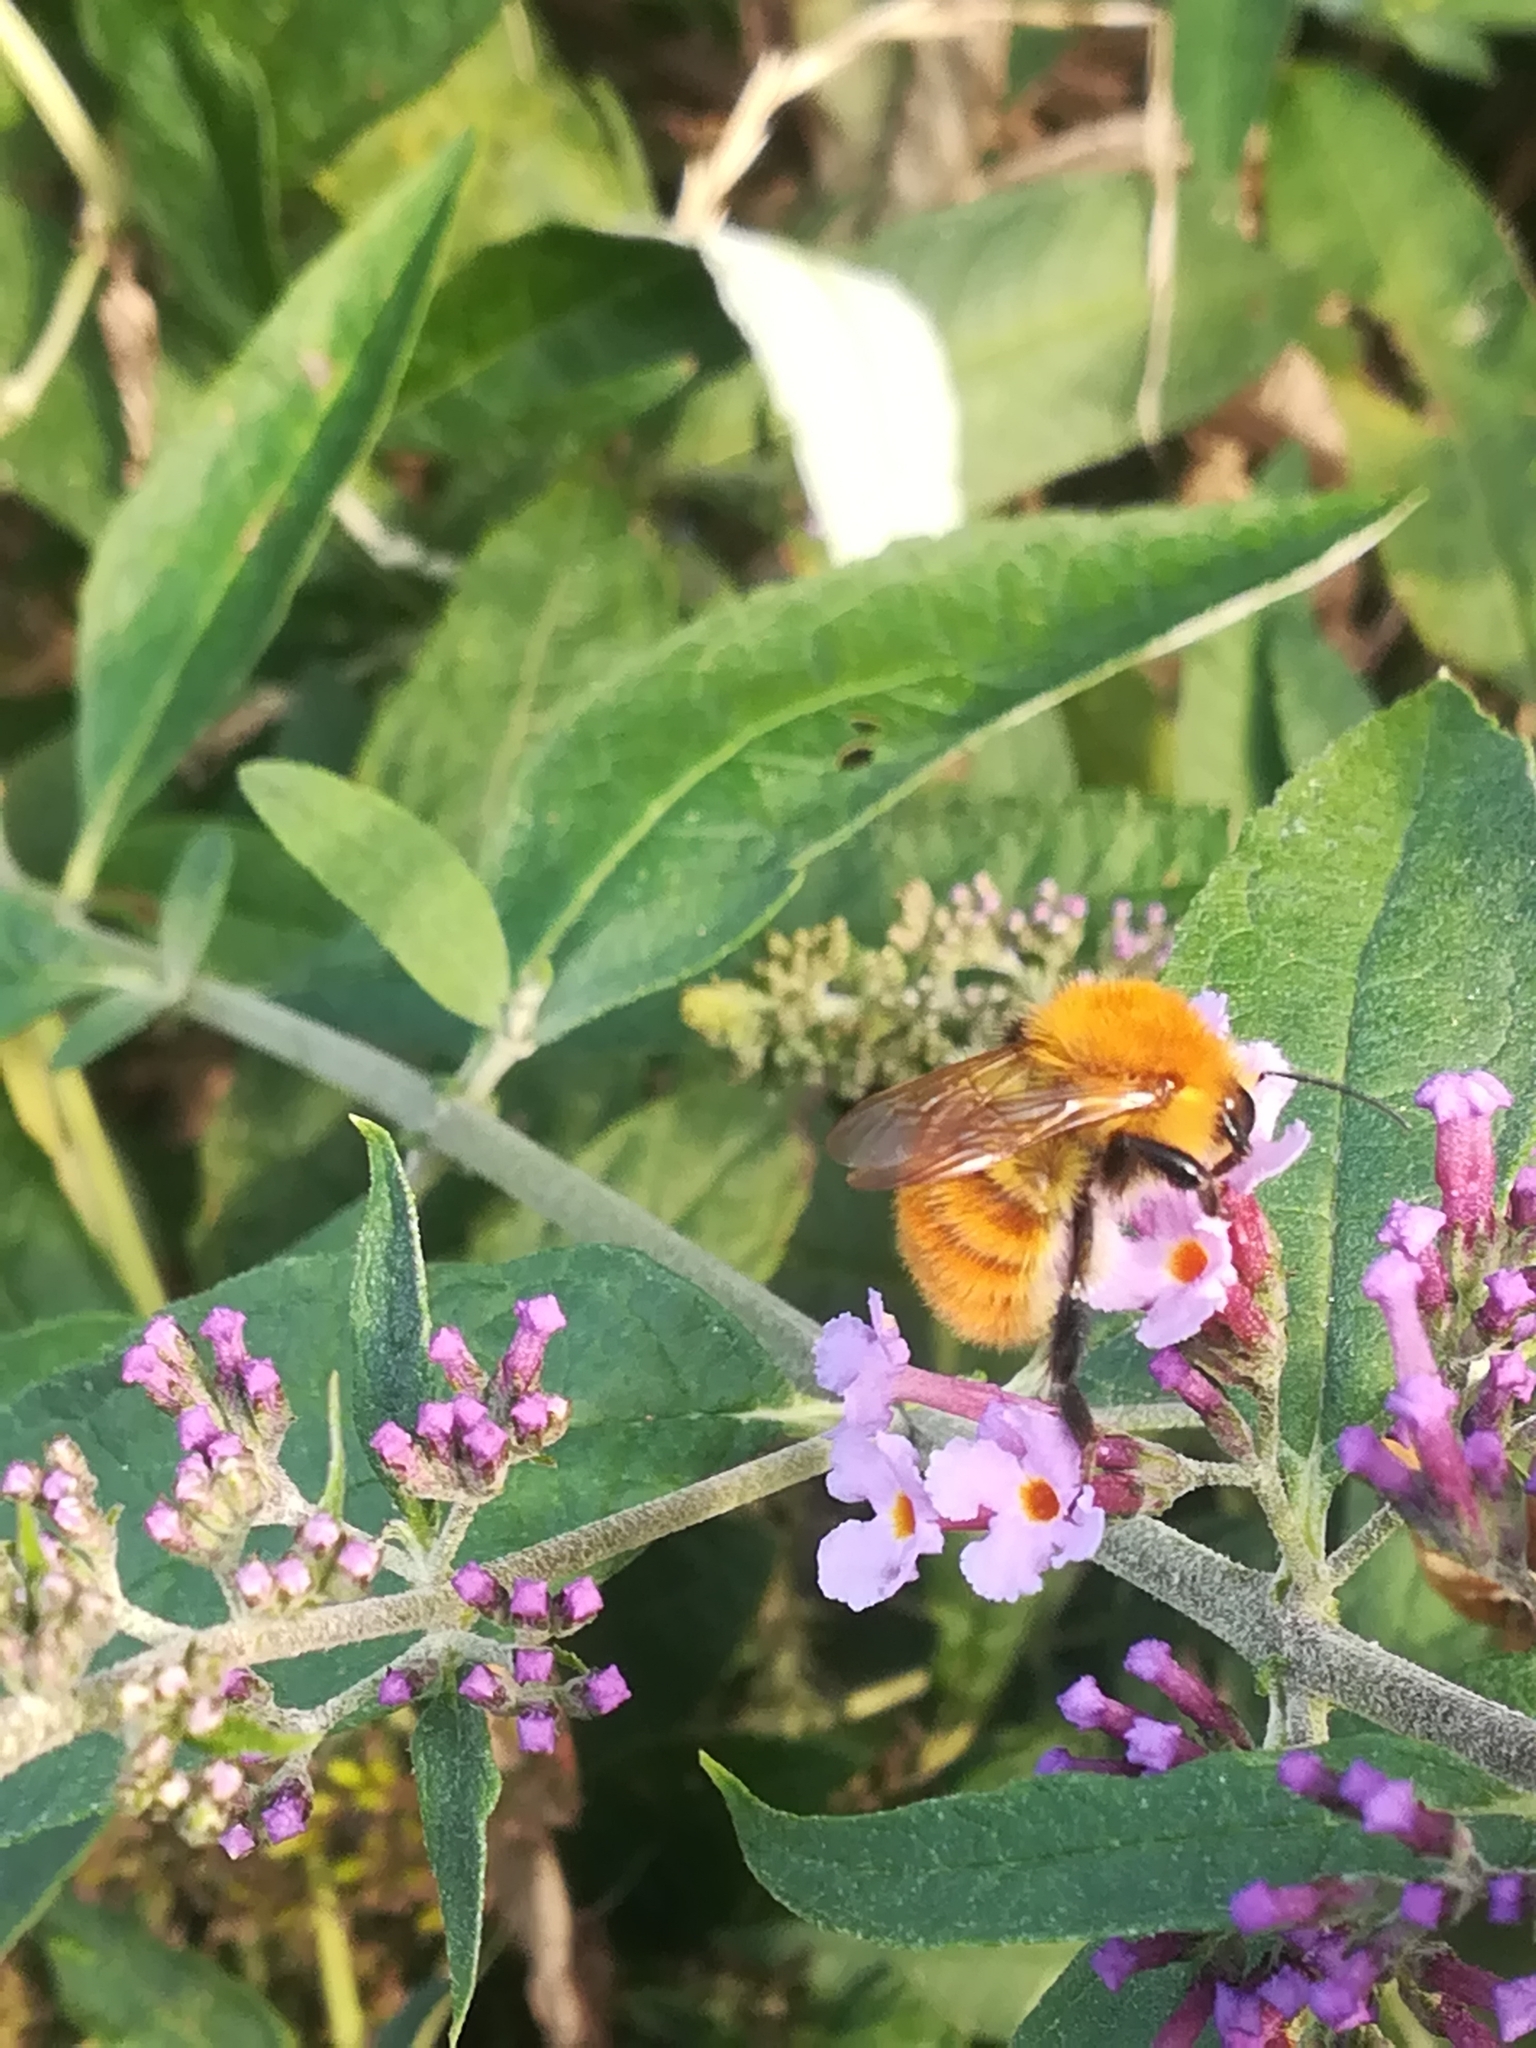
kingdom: Animalia
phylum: Arthropoda
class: Insecta
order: Hymenoptera
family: Apidae
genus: Bombus
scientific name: Bombus pascuorum
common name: Common carder bee
